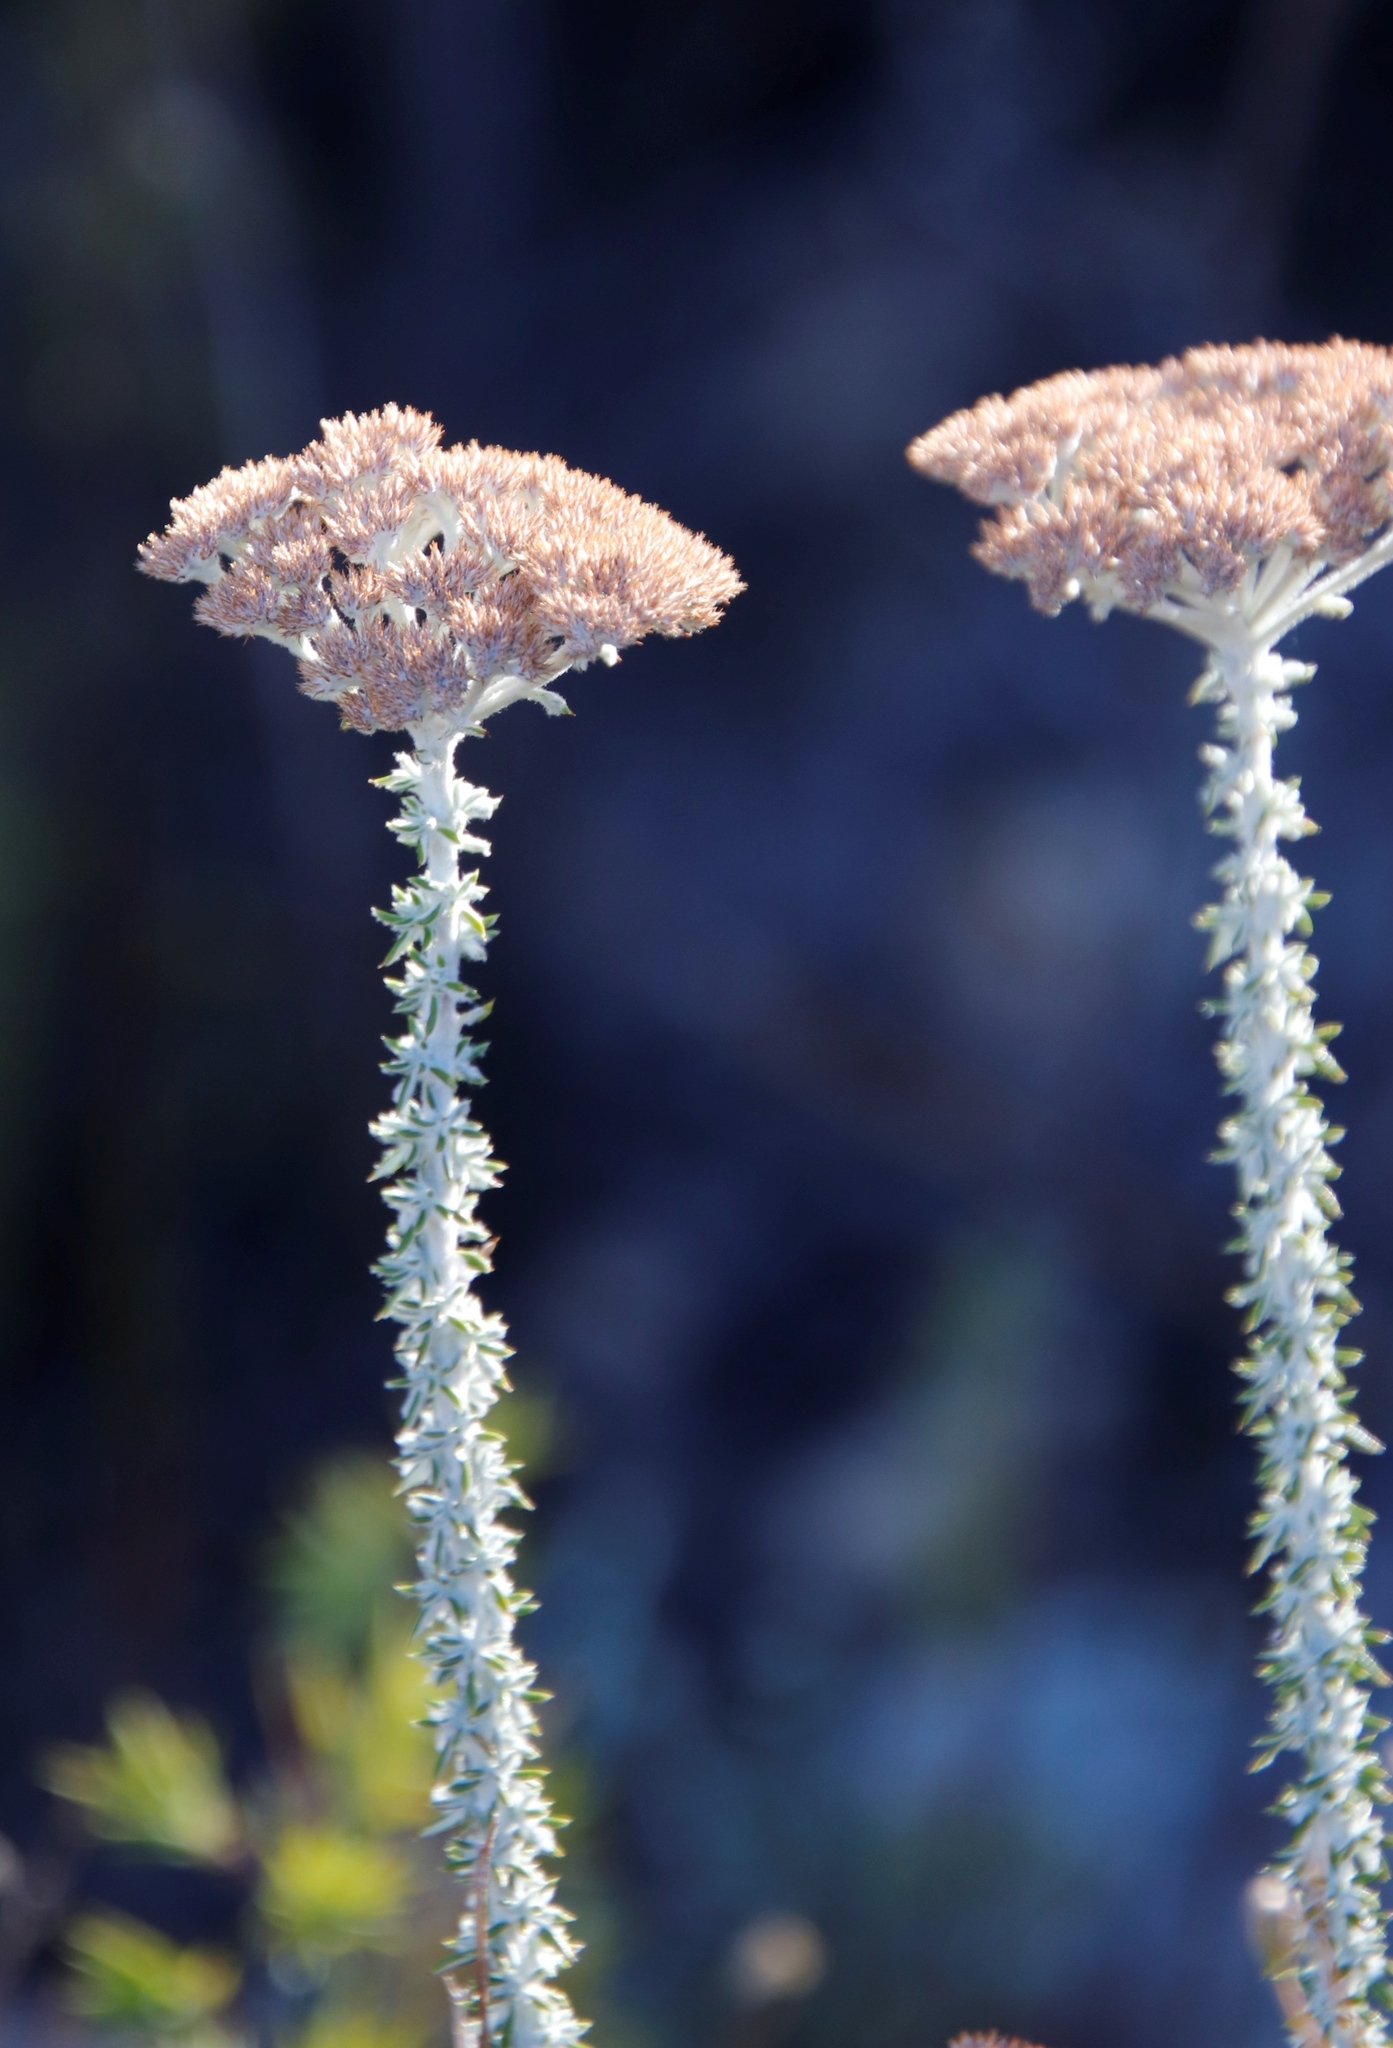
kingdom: Plantae
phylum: Tracheophyta
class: Magnoliopsida
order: Asterales
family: Asteraceae
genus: Metalasia
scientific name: Metalasia dregeana
